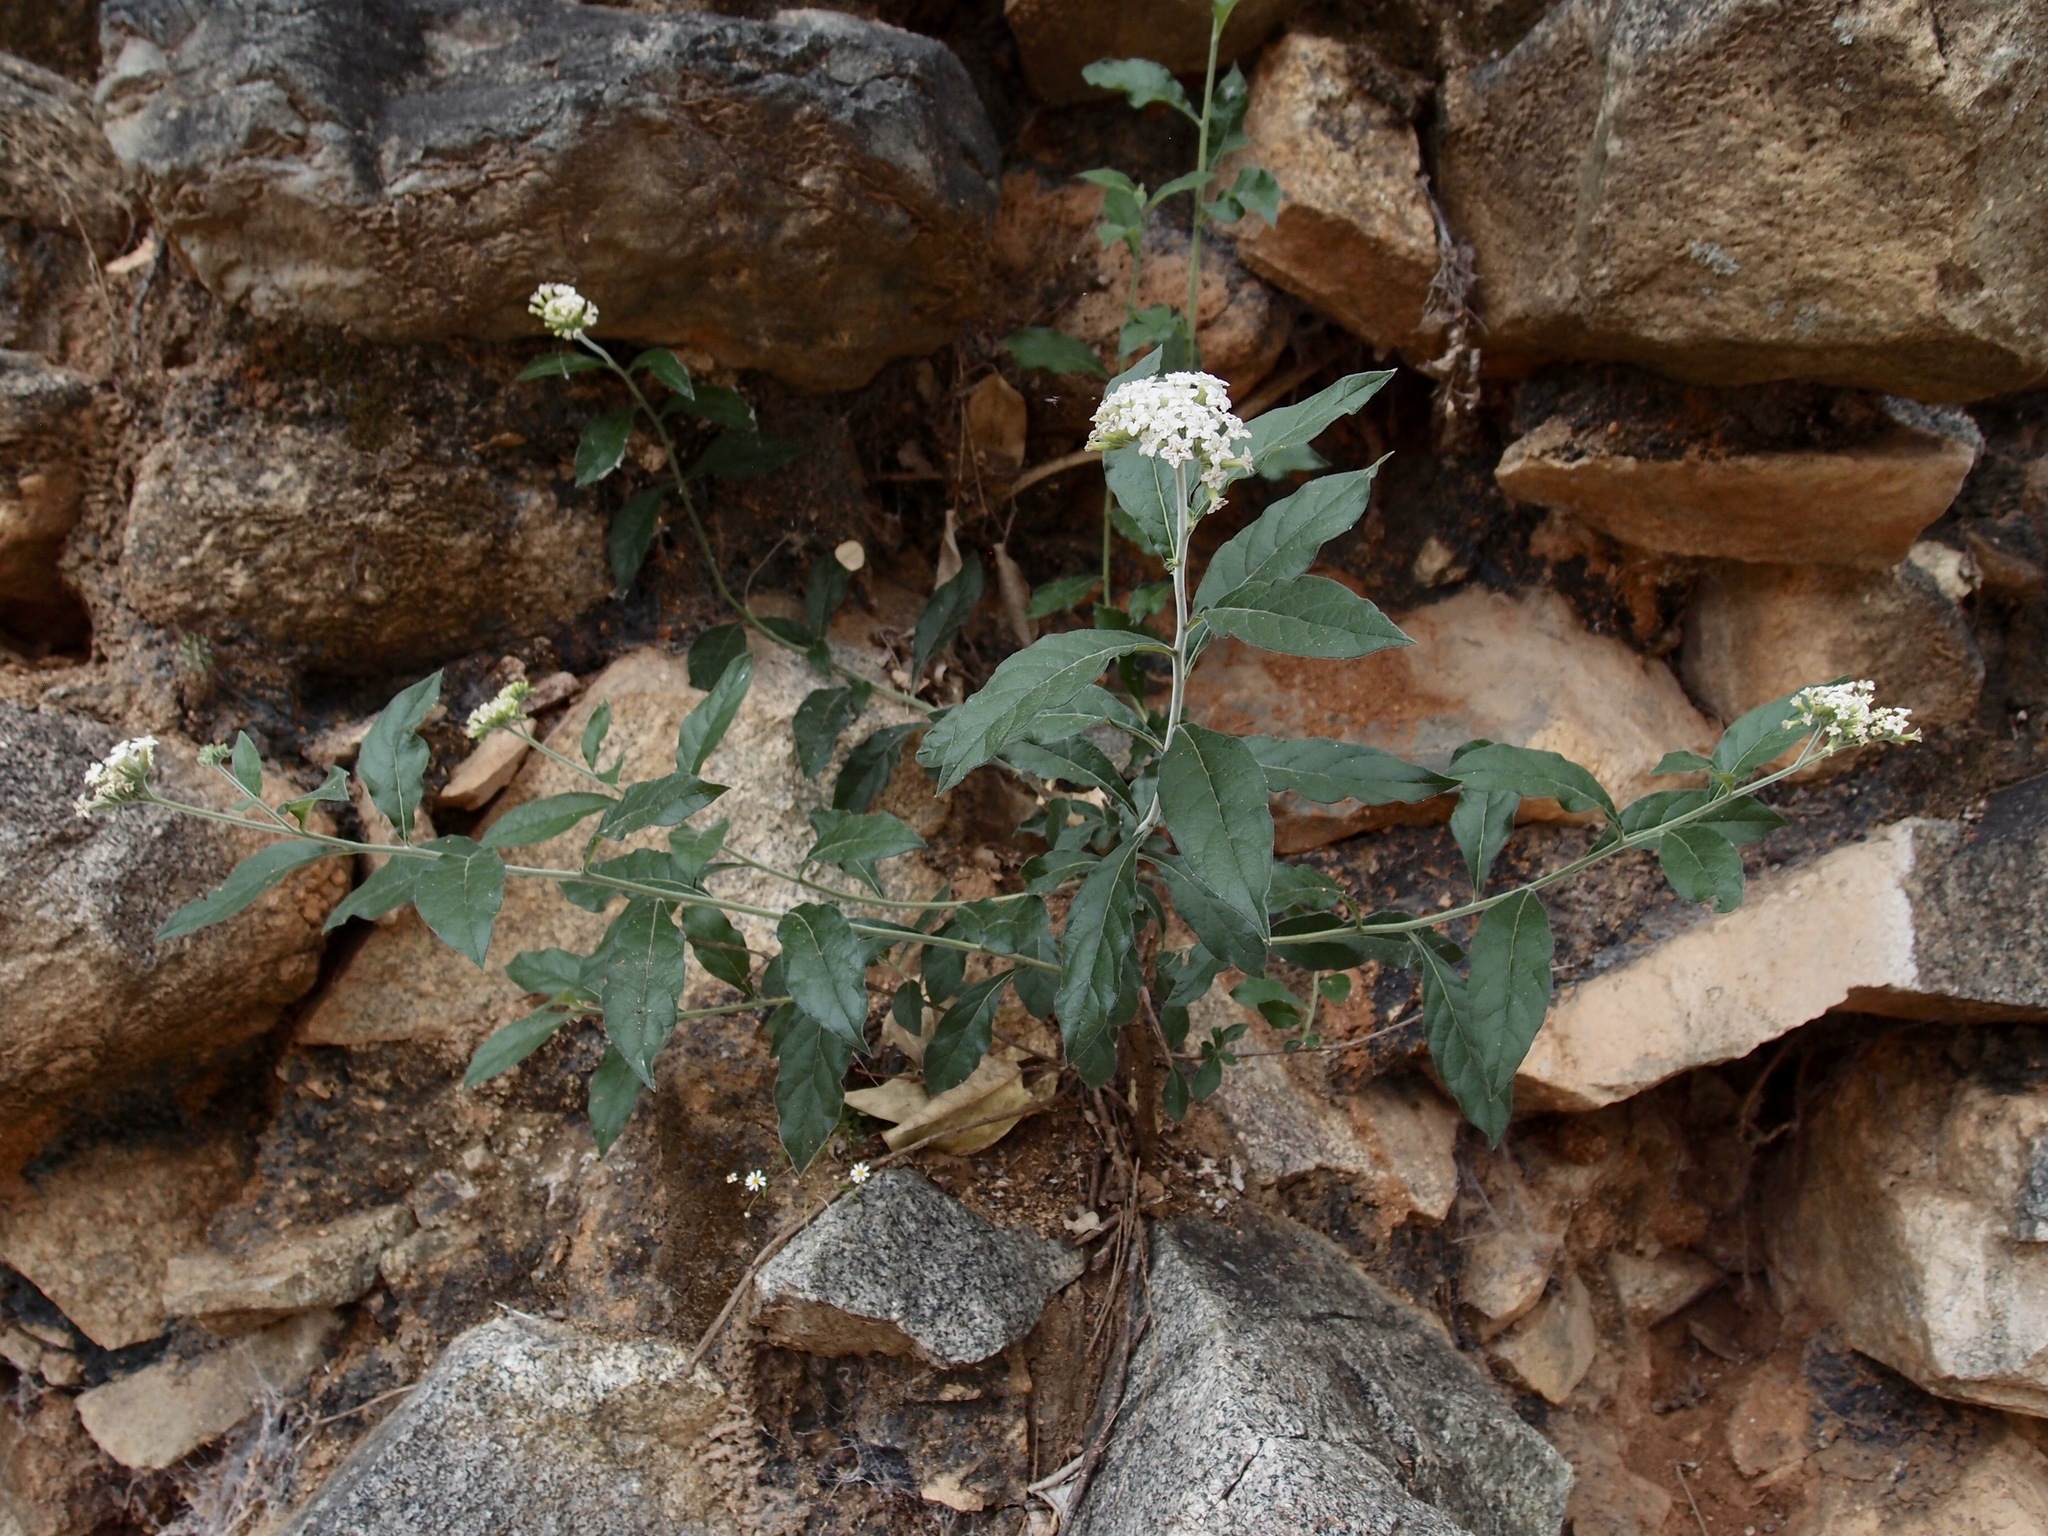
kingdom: Plantae
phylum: Tracheophyta
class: Magnoliopsida
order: Boraginales
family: Heliotropiaceae
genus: Tournefortia
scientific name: Tournefortia mutabilis
